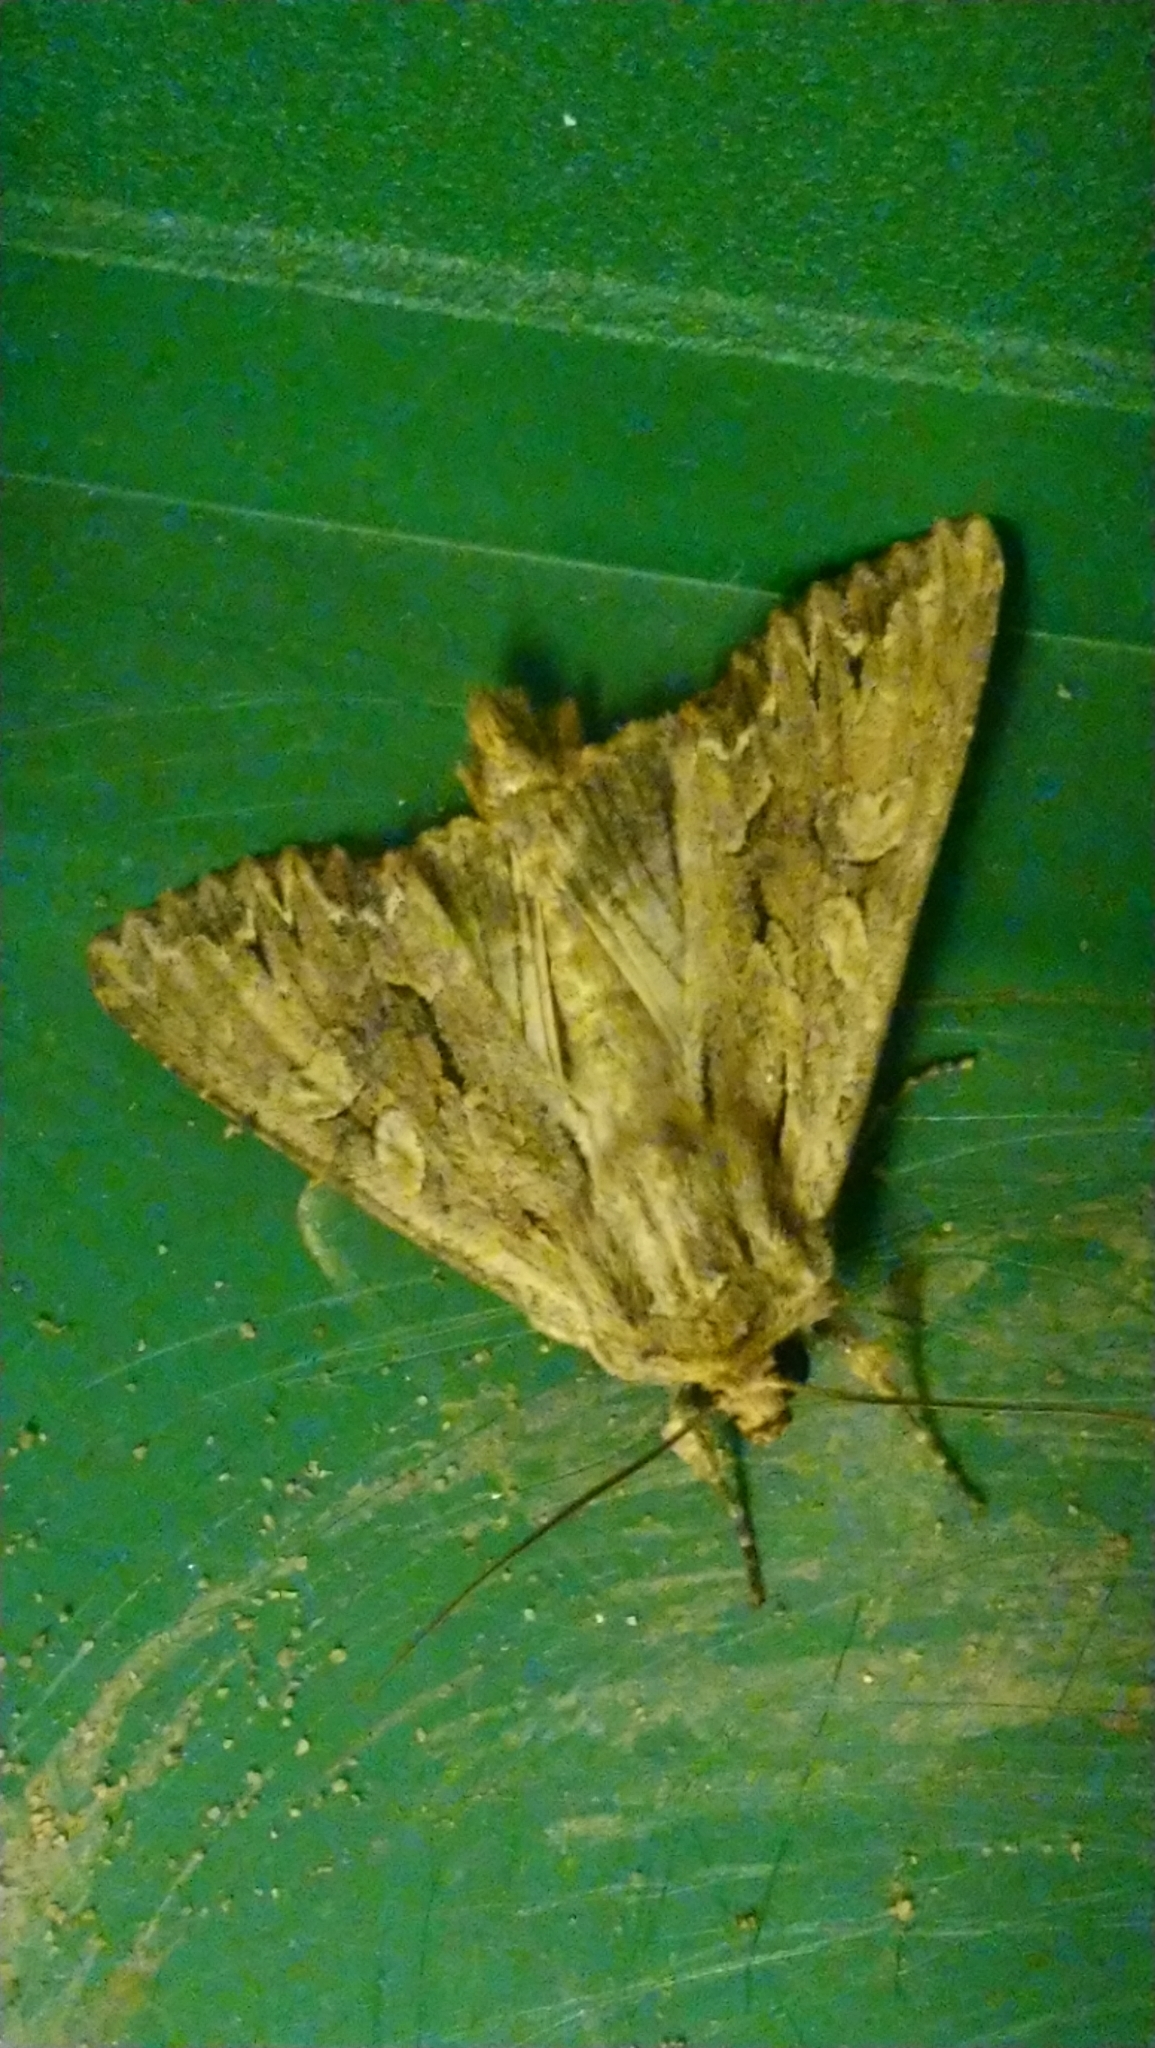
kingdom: Animalia
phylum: Arthropoda
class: Insecta
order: Lepidoptera
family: Noctuidae
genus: Apamea
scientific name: Apamea monoglypha
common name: Dark arches
